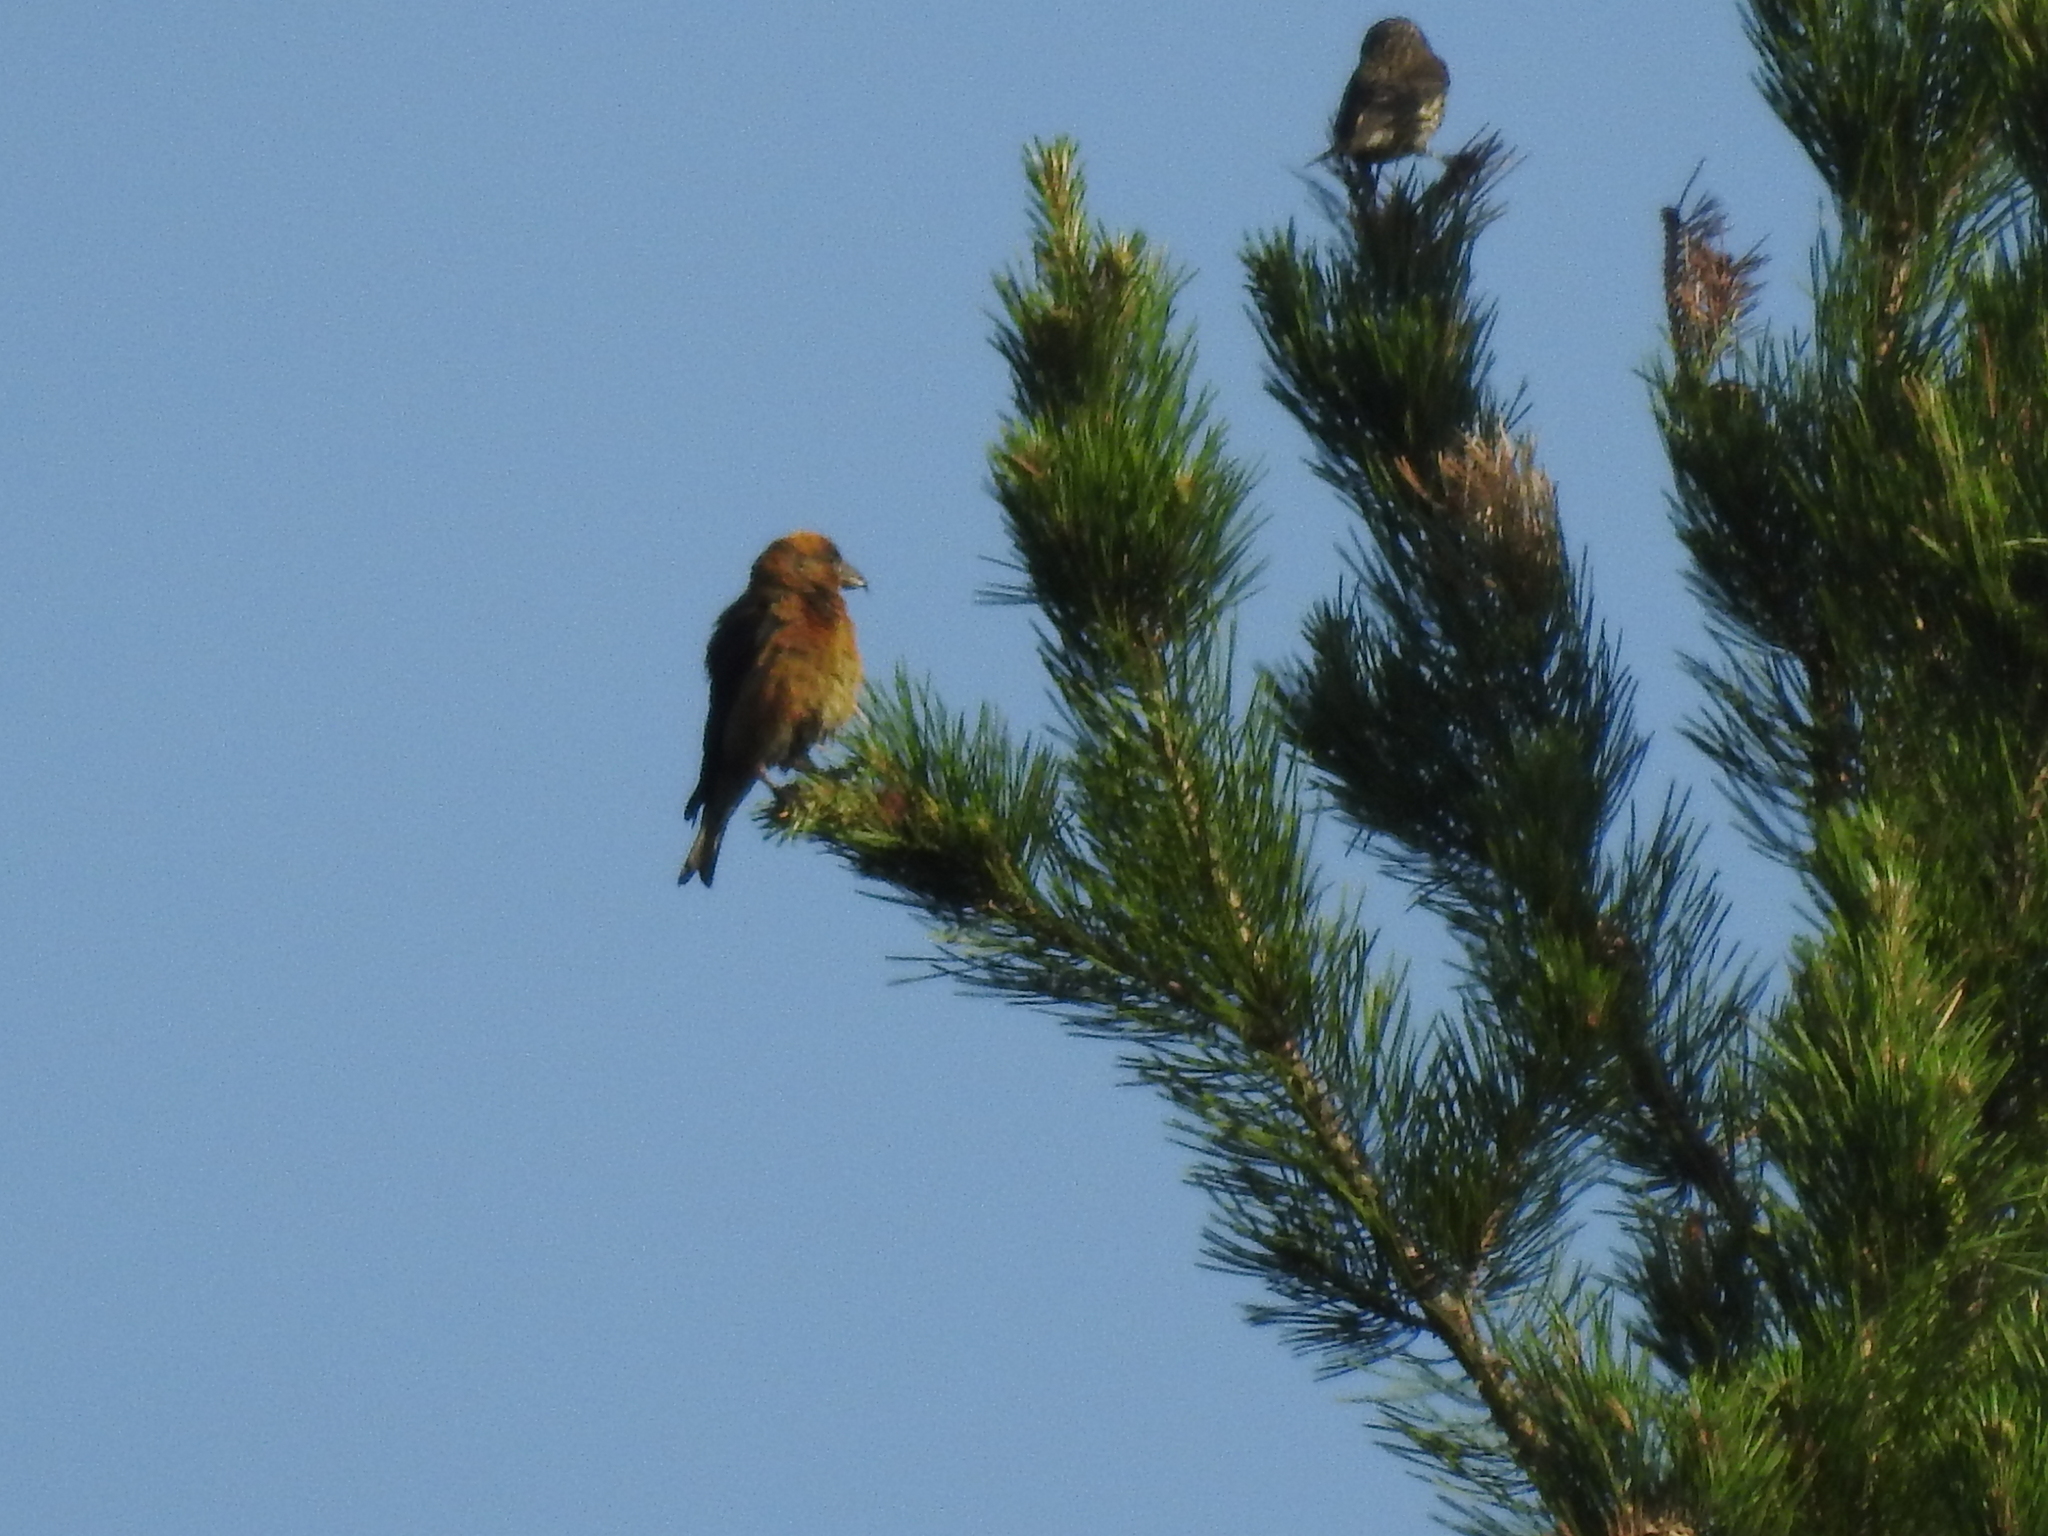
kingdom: Animalia
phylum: Chordata
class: Aves
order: Passeriformes
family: Fringillidae
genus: Loxia
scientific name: Loxia curvirostra
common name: Red crossbill
